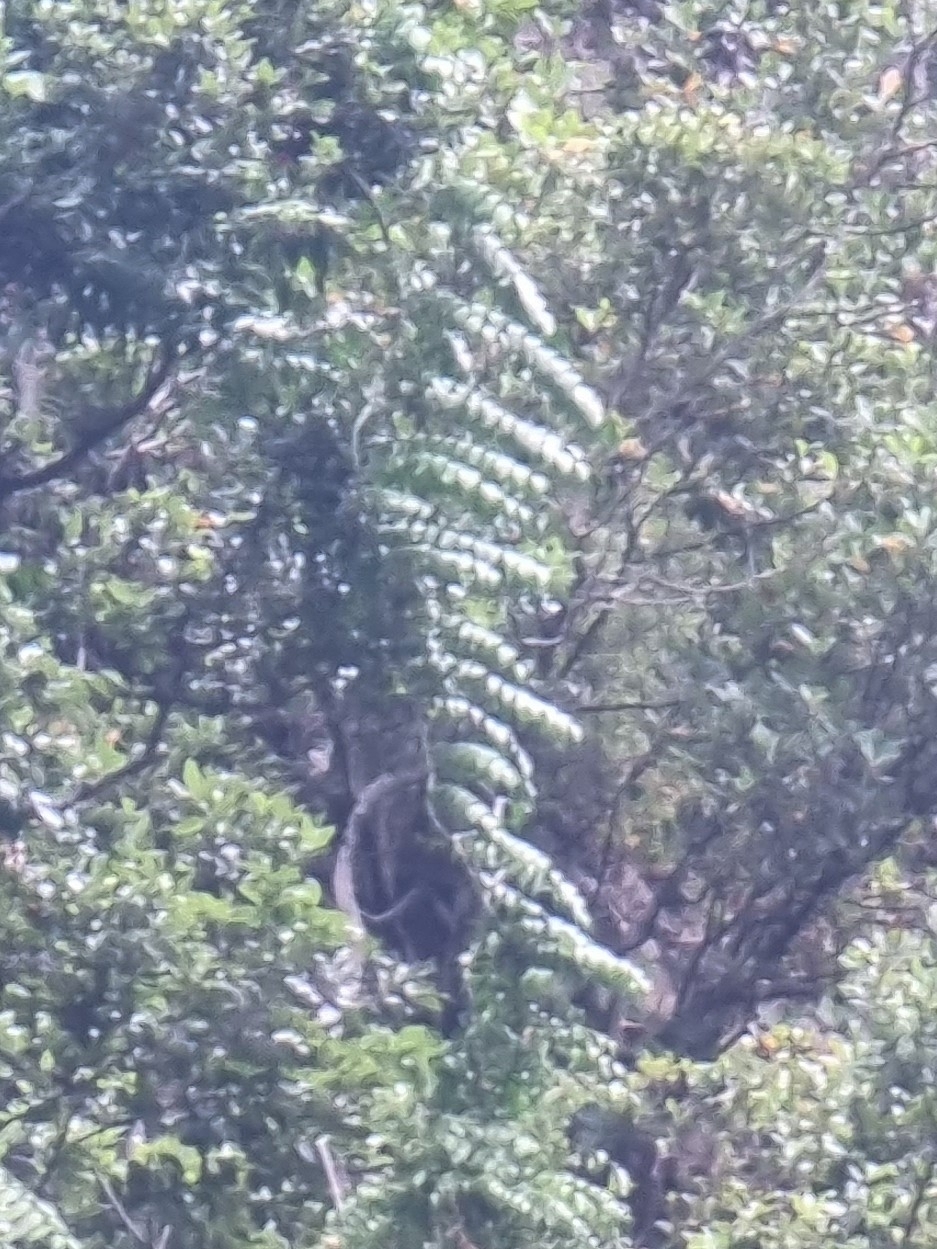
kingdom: Plantae
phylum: Tracheophyta
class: Liliopsida
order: Asparagales
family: Asparagaceae
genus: Semele
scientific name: Semele androgyna
